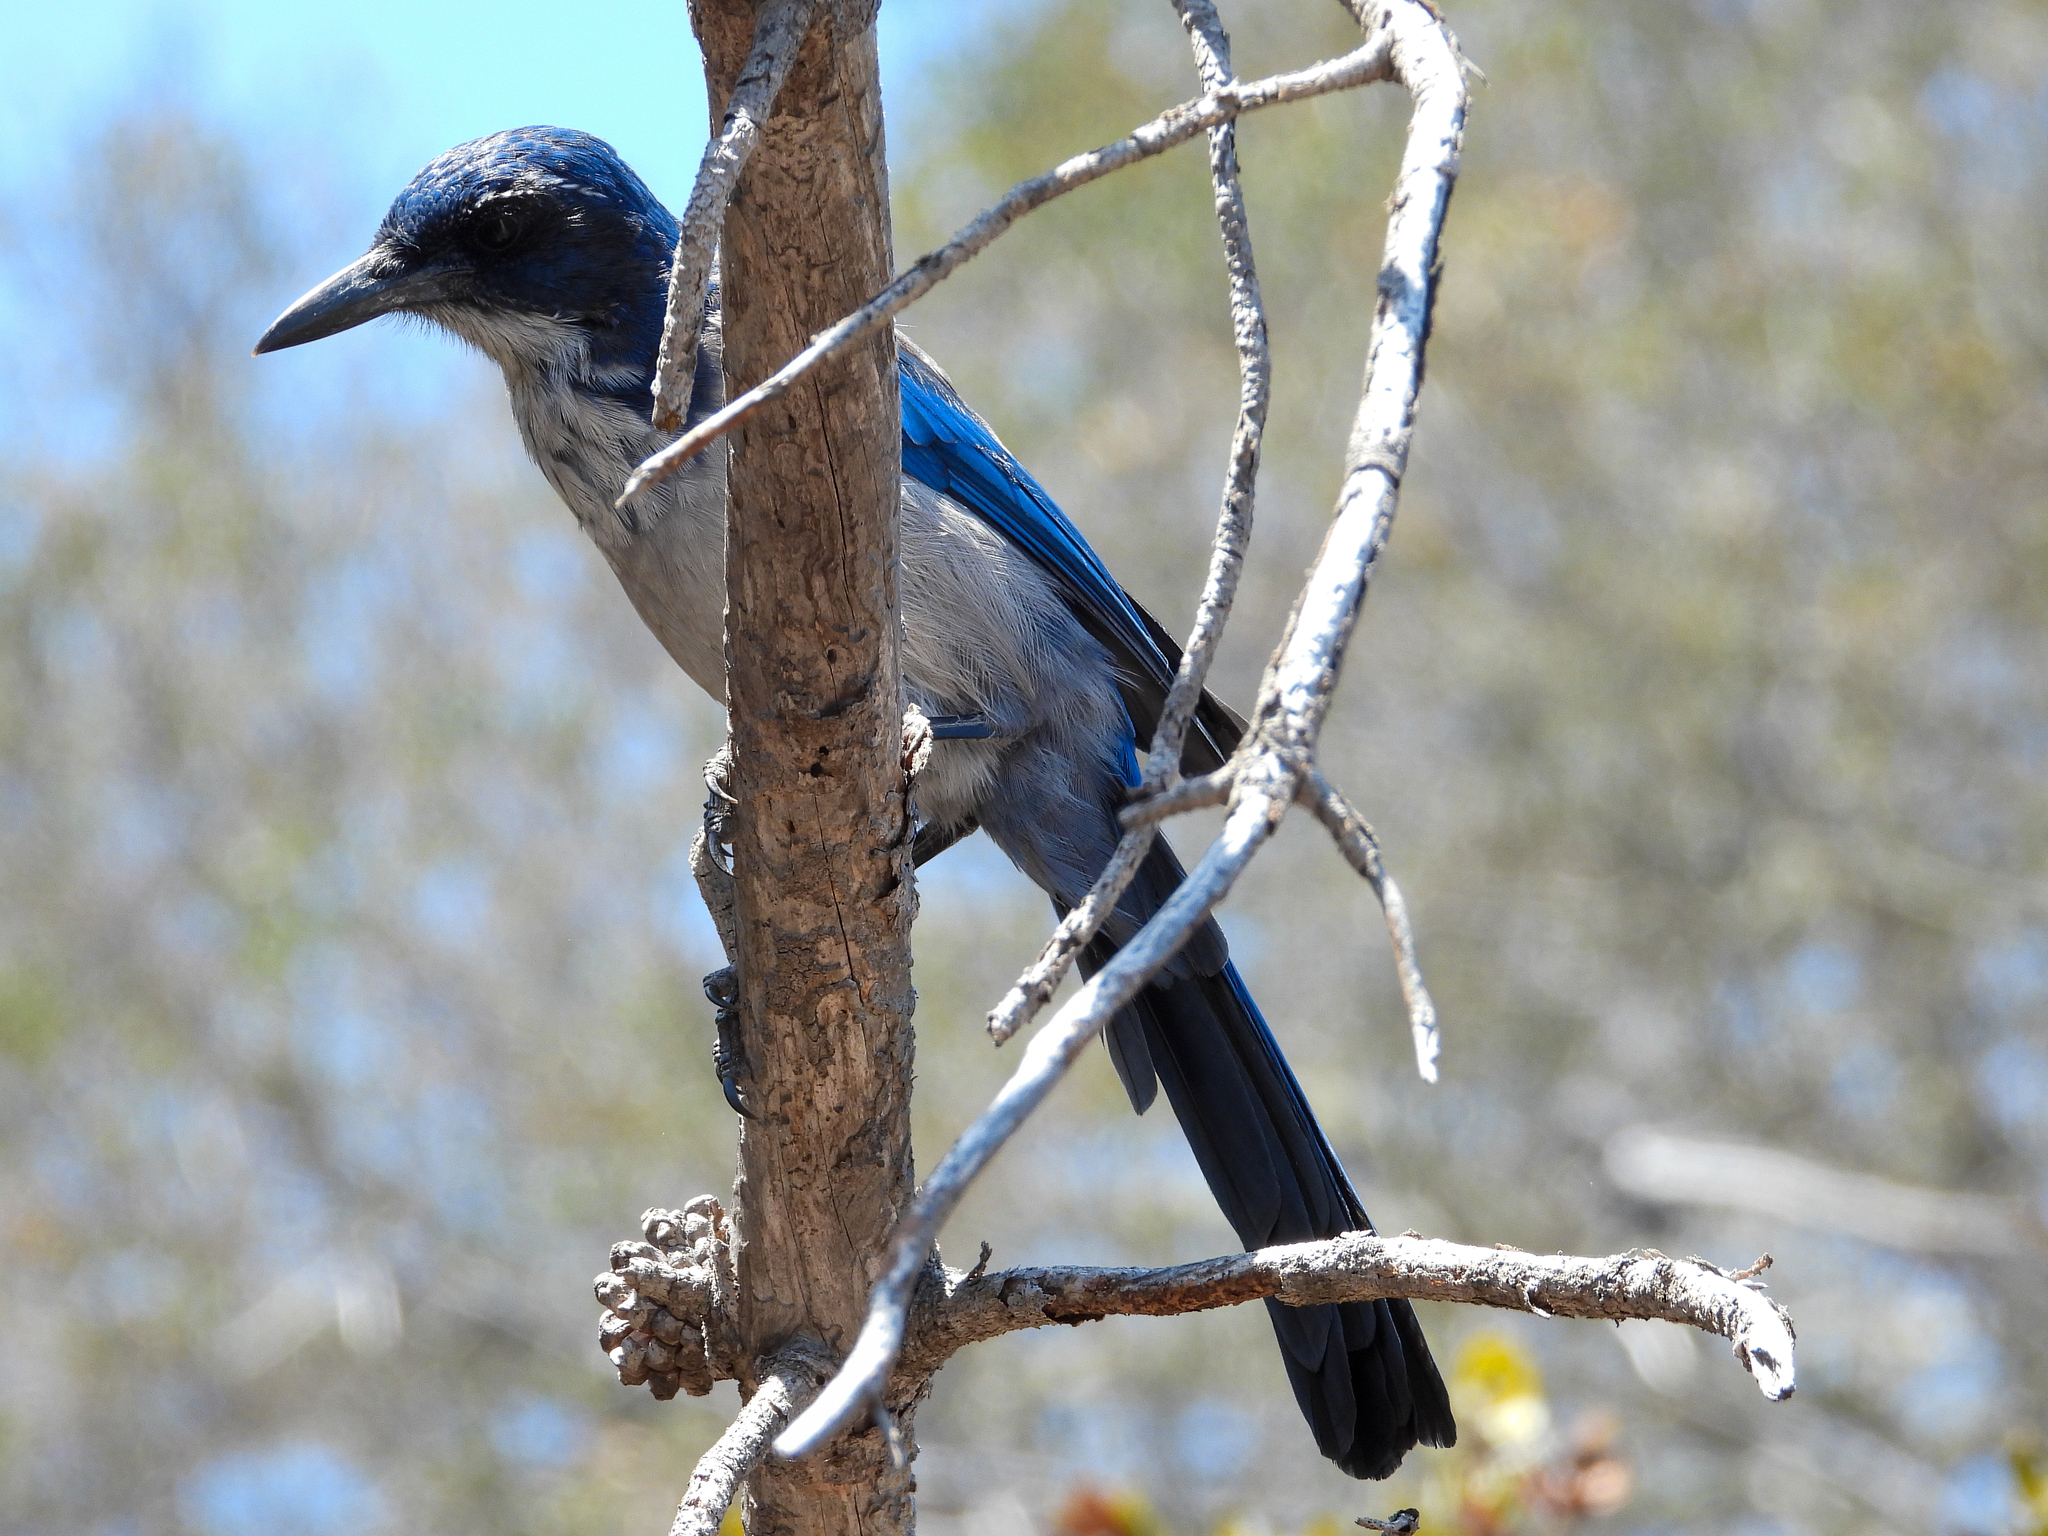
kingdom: Animalia
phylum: Chordata
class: Aves
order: Passeriformes
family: Corvidae
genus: Aphelocoma
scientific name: Aphelocoma insularis
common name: Island scrub-jay
